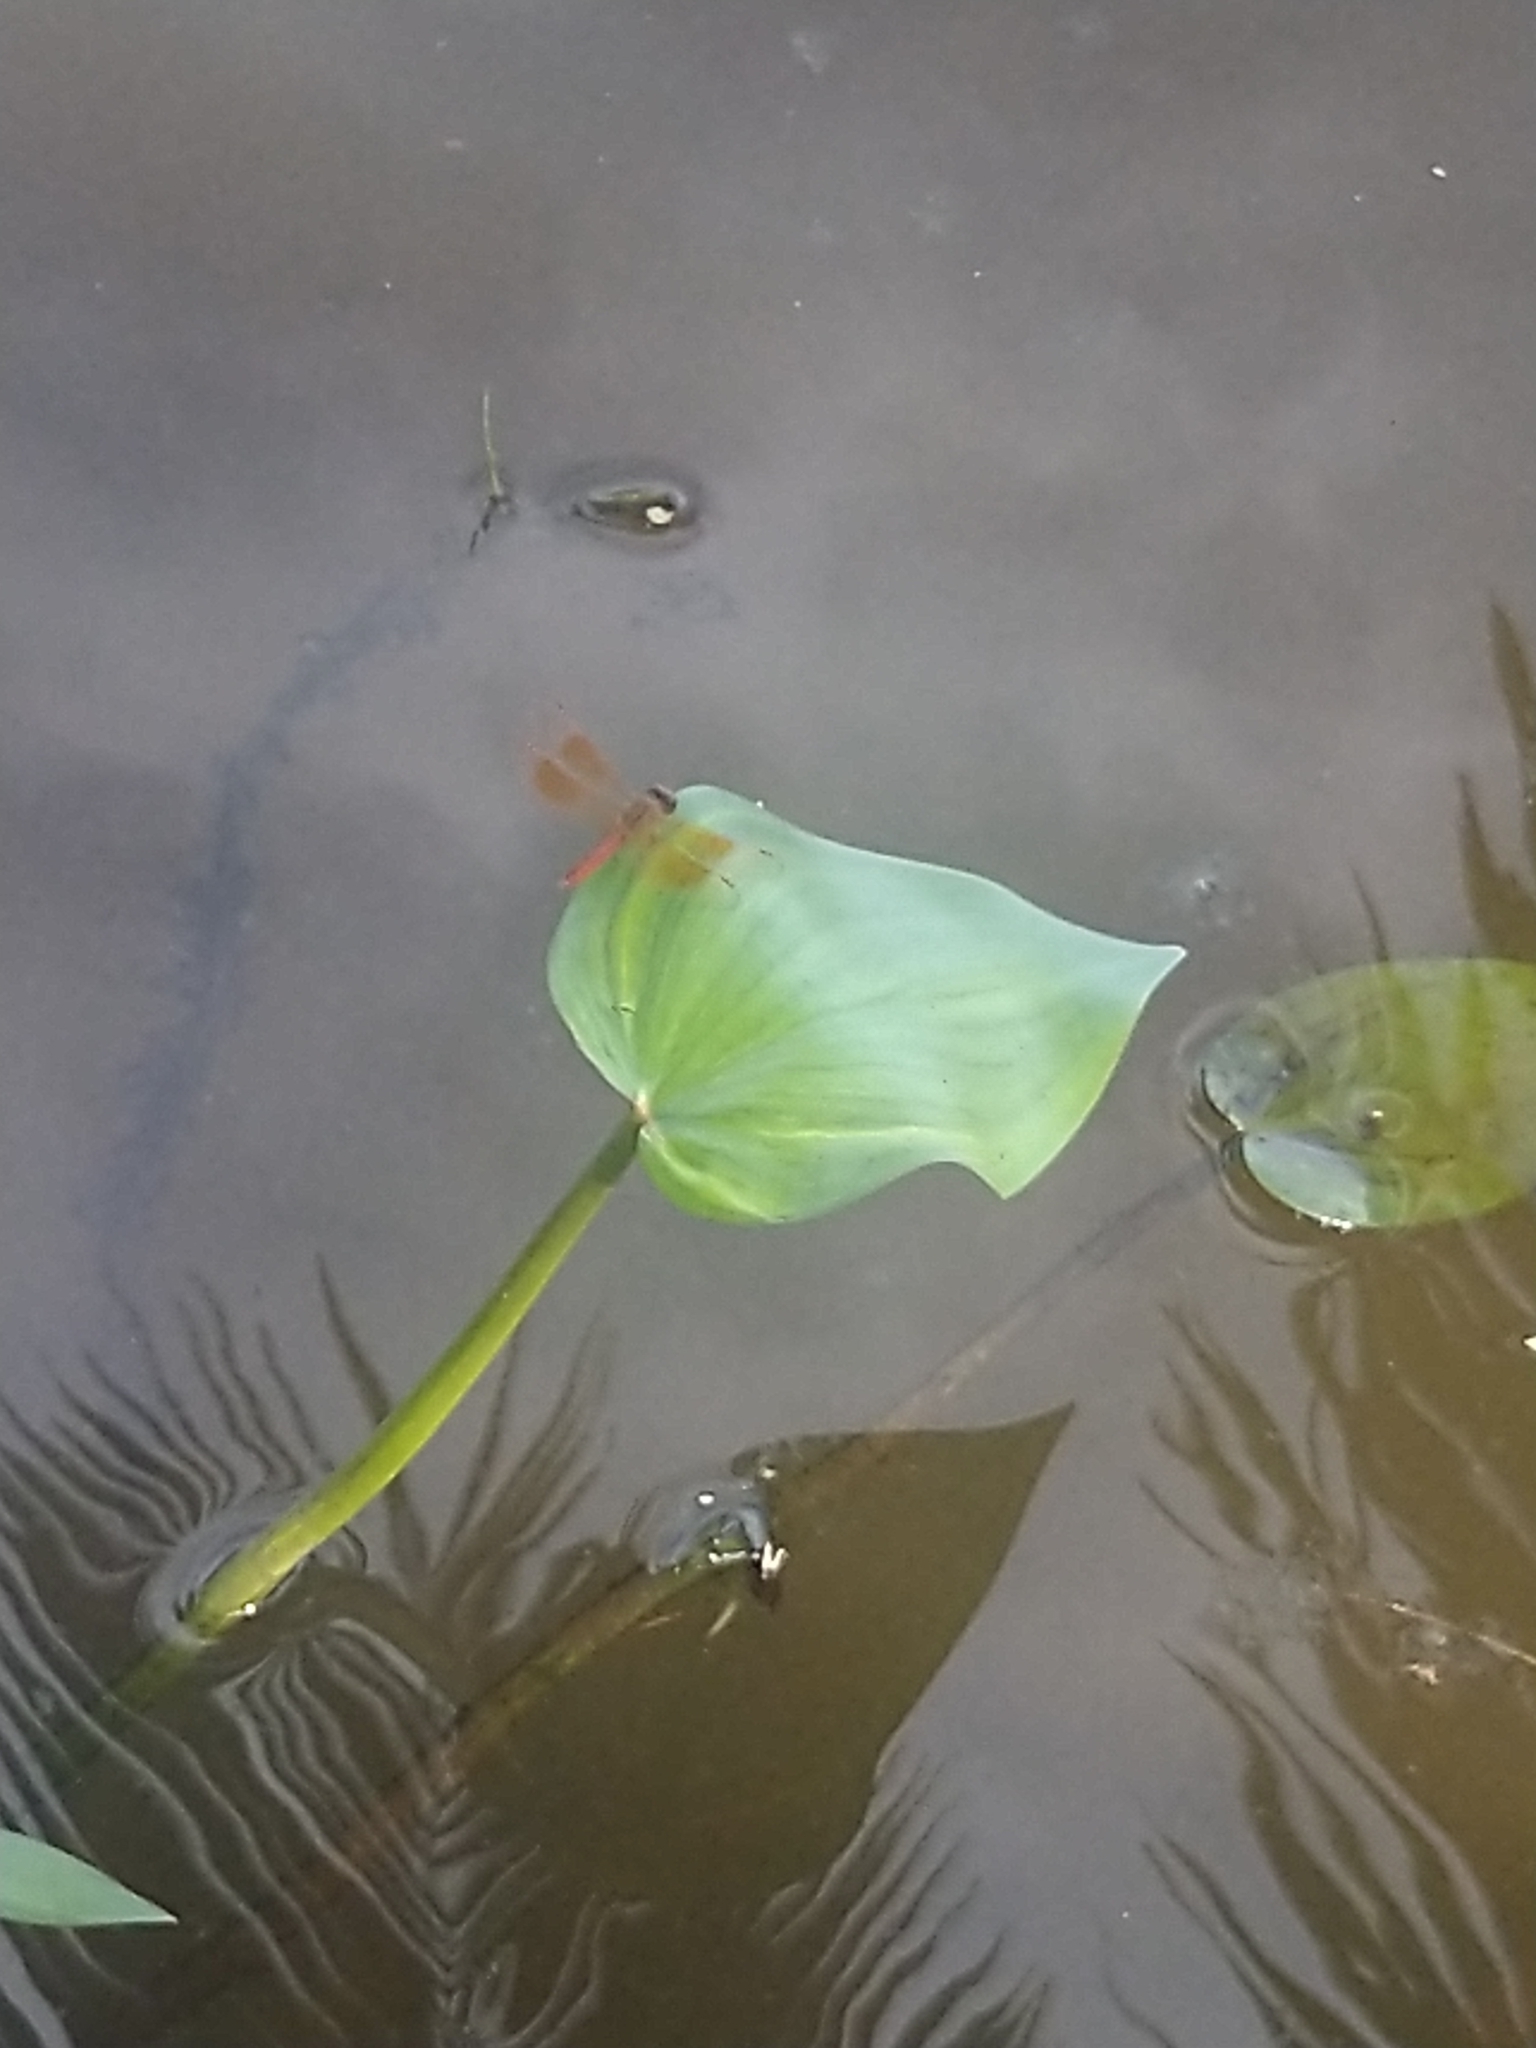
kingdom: Animalia
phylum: Arthropoda
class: Insecta
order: Odonata
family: Libellulidae
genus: Brachythemis
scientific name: Brachythemis contaminata
